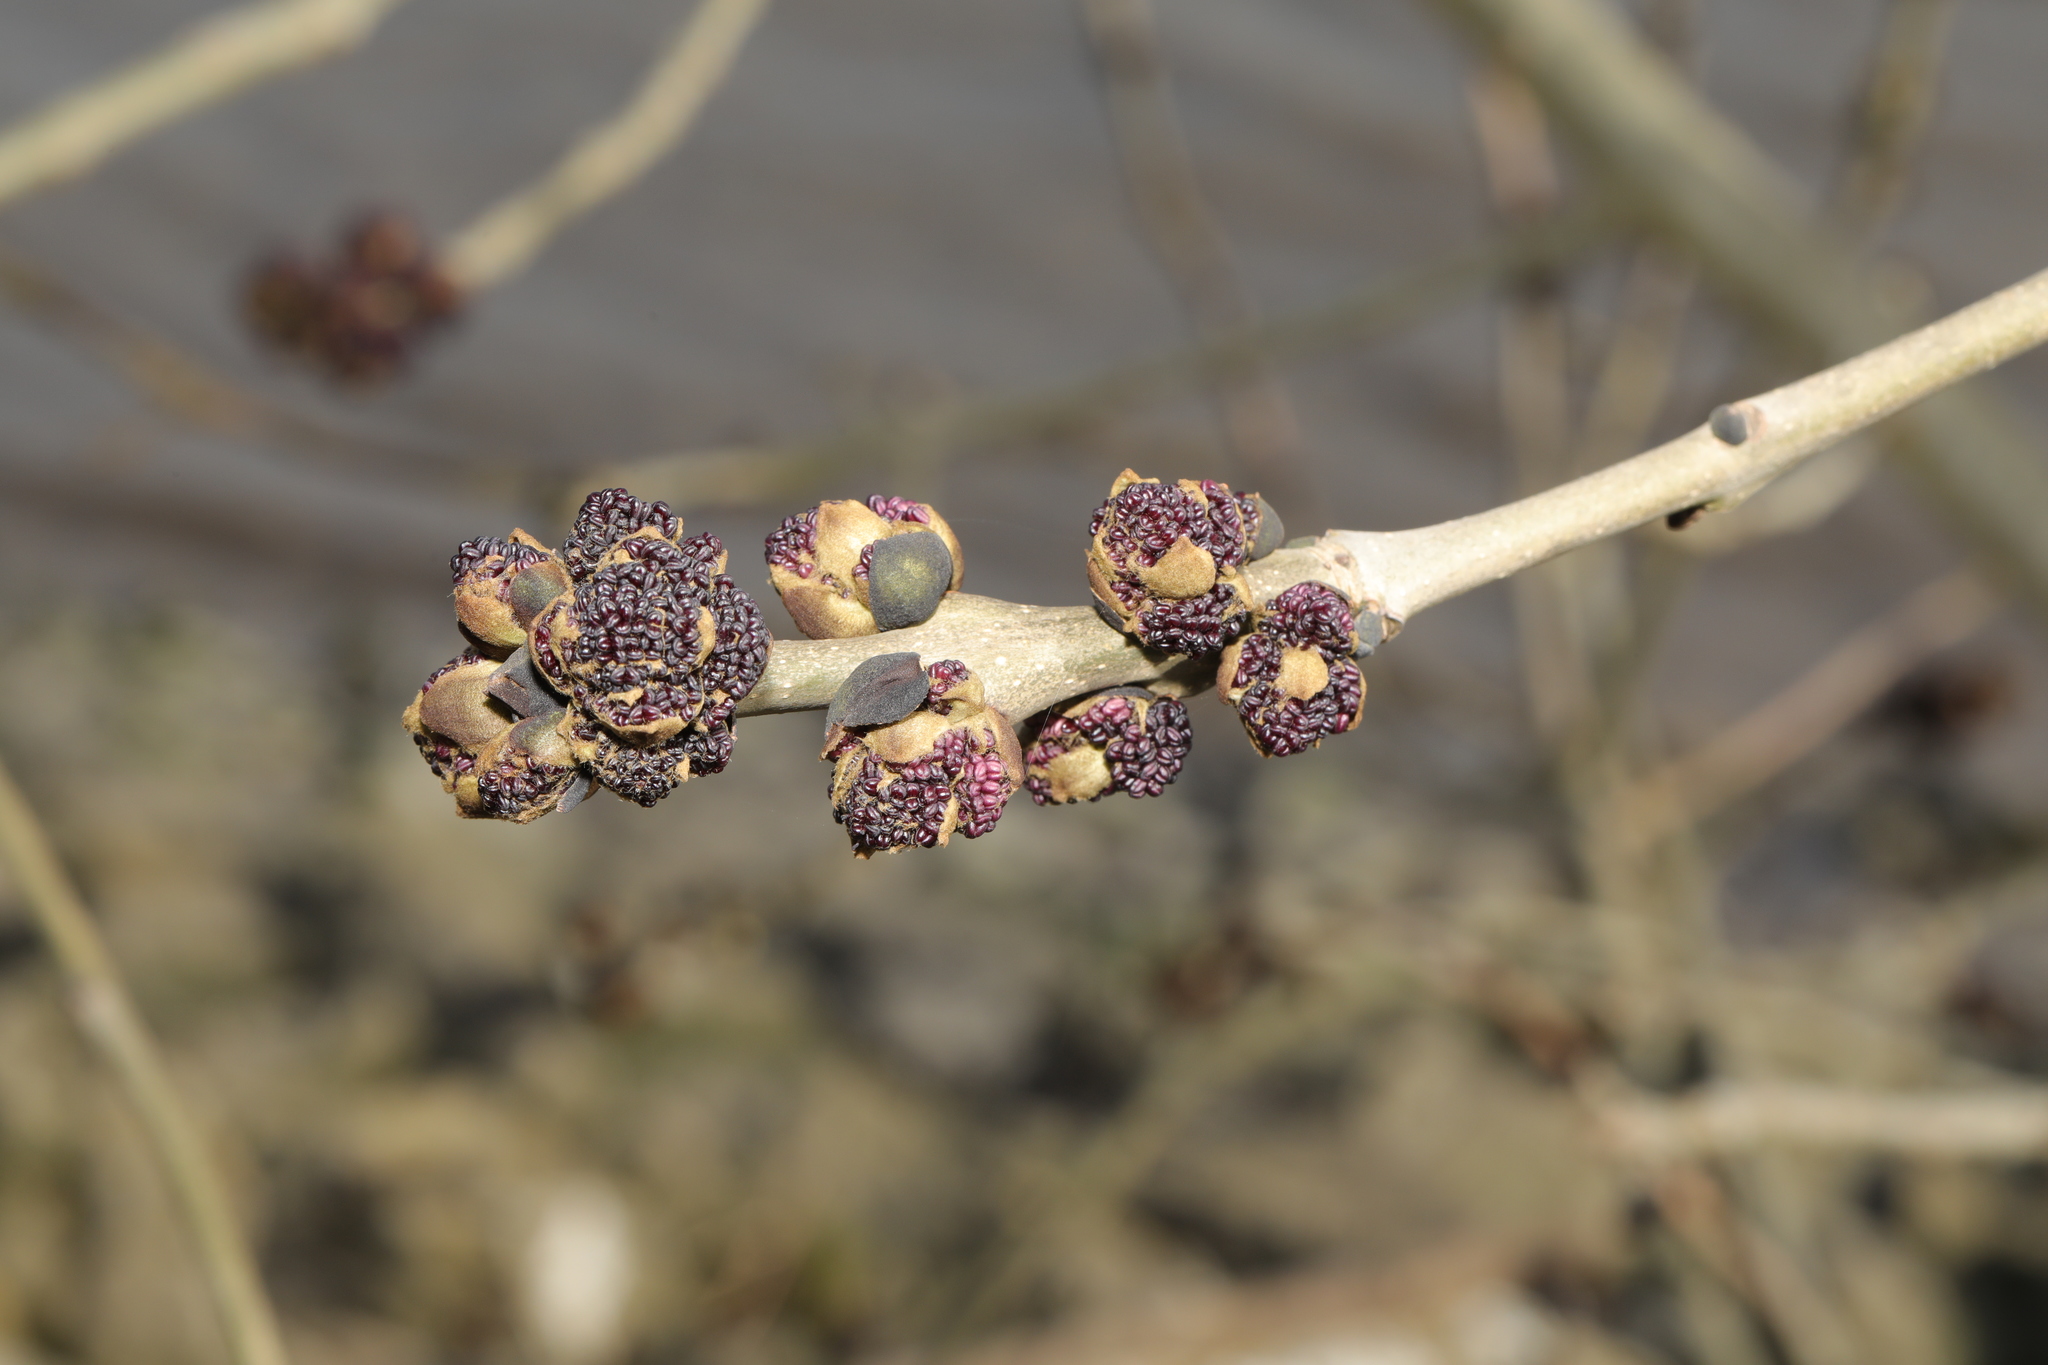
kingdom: Plantae
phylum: Tracheophyta
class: Magnoliopsida
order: Lamiales
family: Oleaceae
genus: Fraxinus
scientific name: Fraxinus excelsior
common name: European ash
